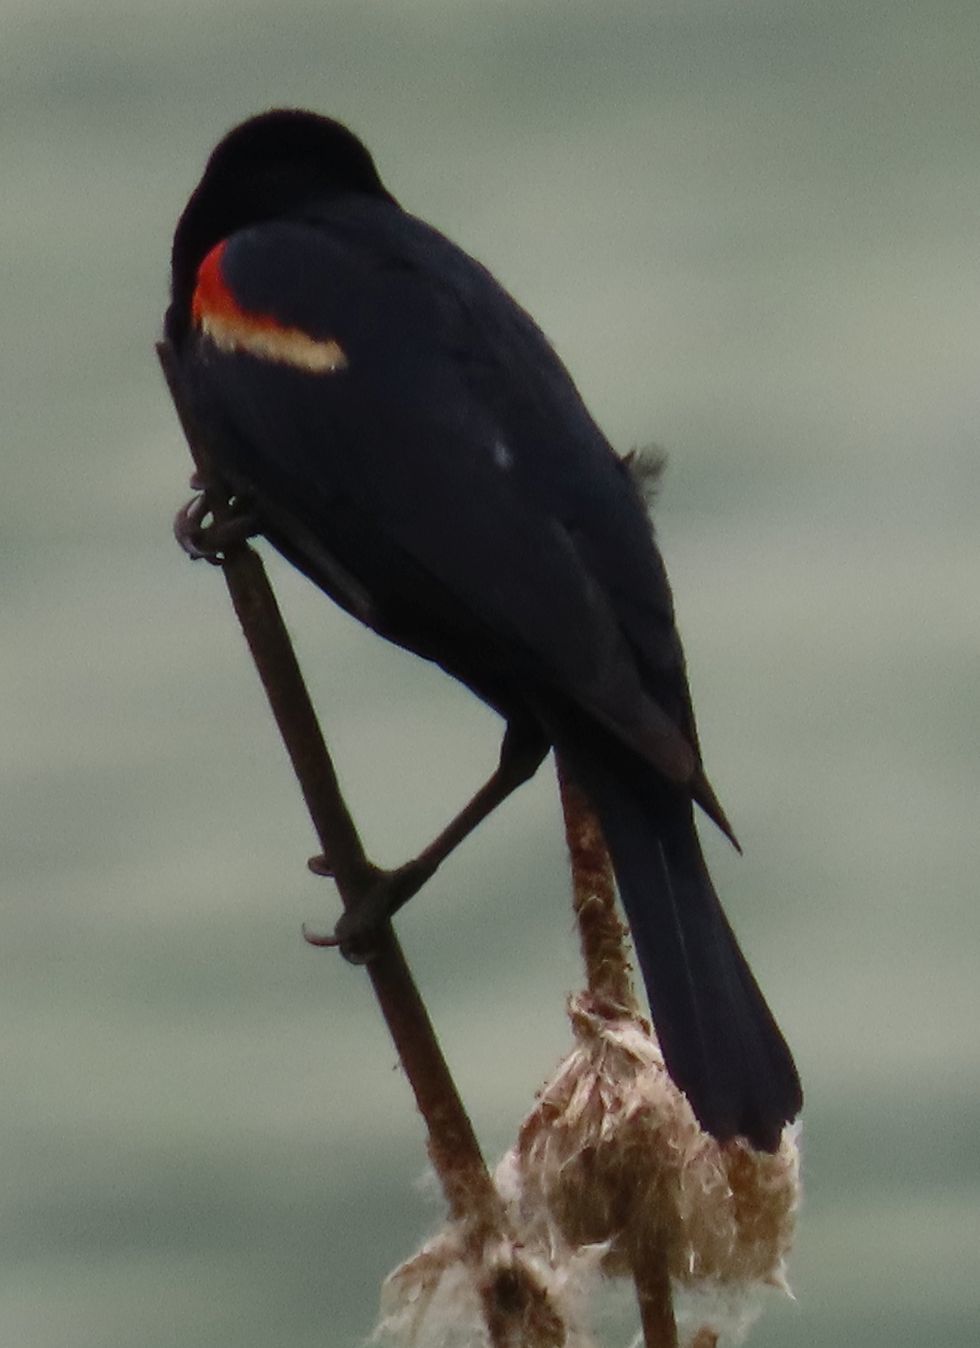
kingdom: Animalia
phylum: Chordata
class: Aves
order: Passeriformes
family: Icteridae
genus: Agelaius
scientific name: Agelaius phoeniceus
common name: Red-winged blackbird
